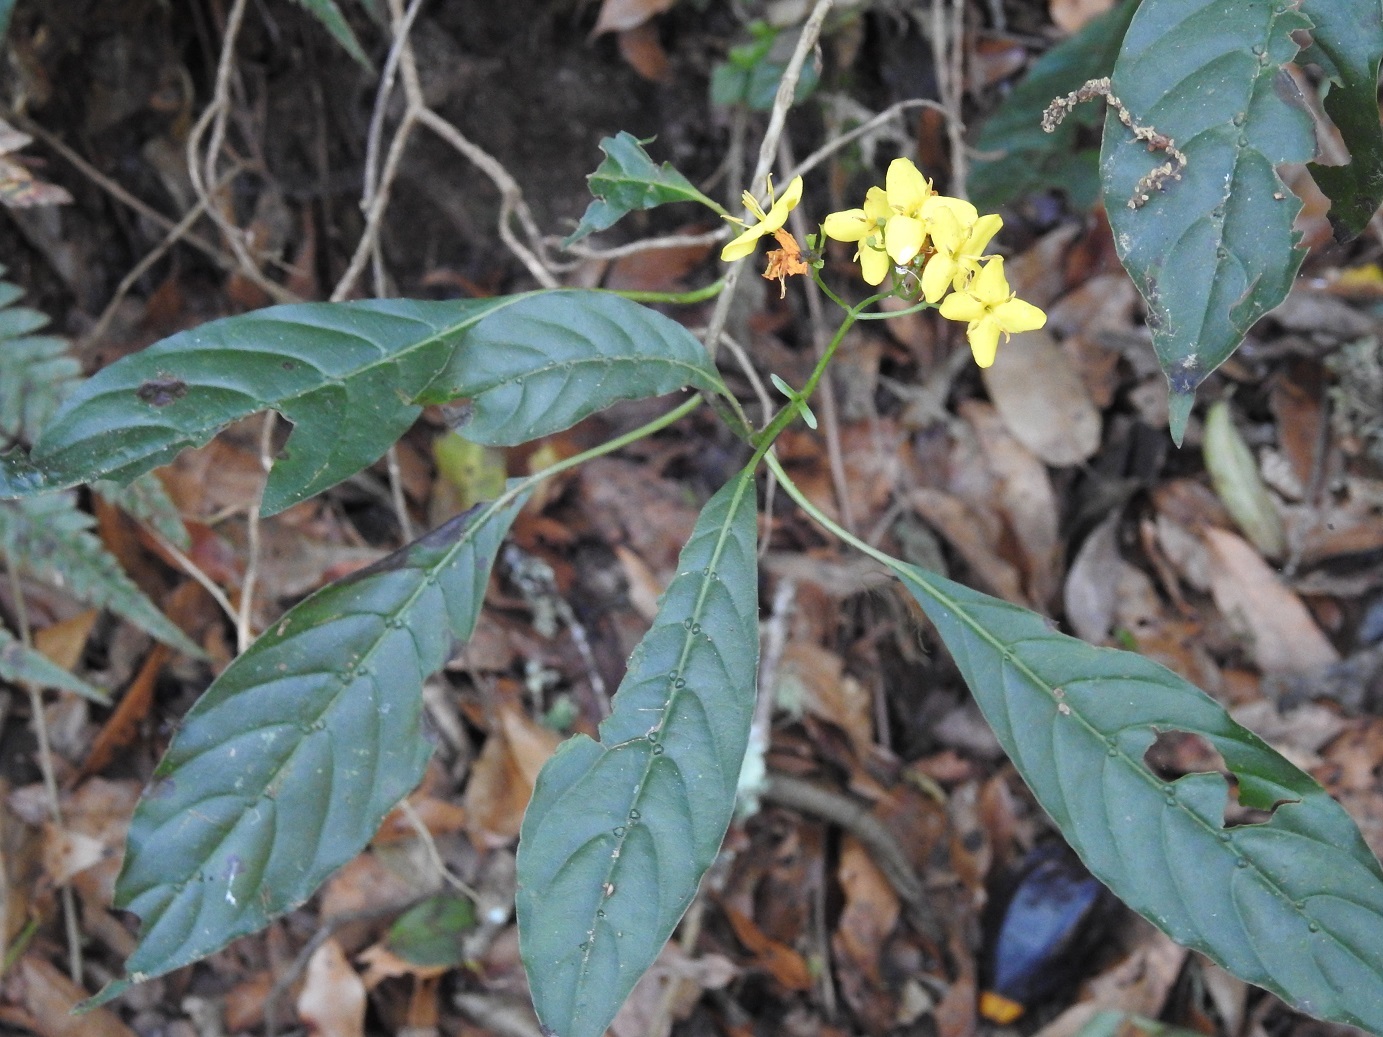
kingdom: Plantae
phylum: Tracheophyta
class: Magnoliopsida
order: Gentianales
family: Rubiaceae
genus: Deppea
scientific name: Deppea grandiflora
